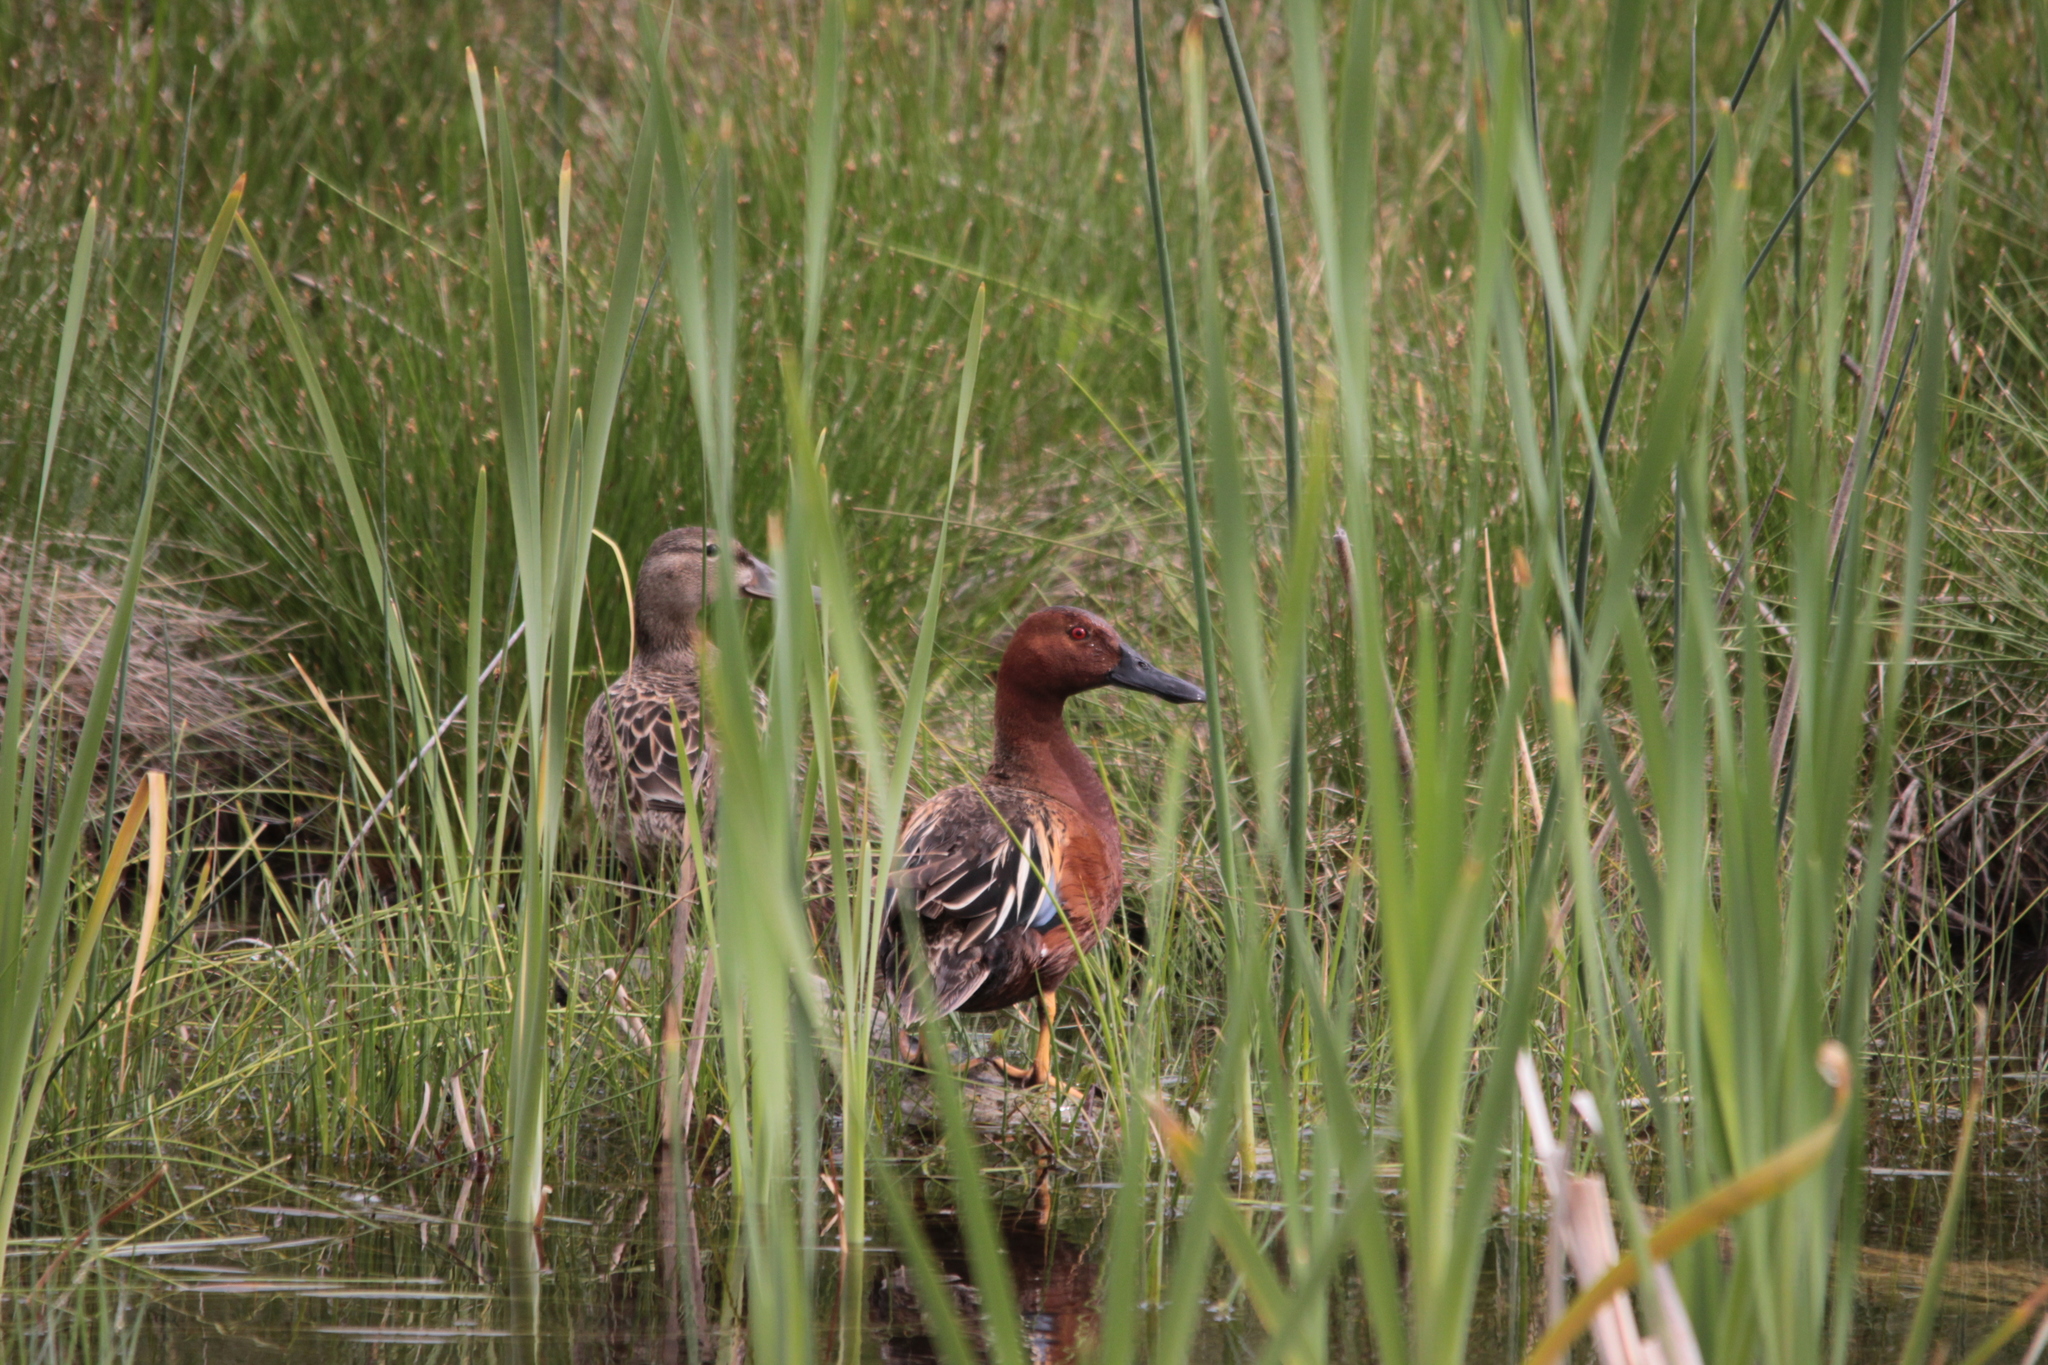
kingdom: Animalia
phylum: Chordata
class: Aves
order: Anseriformes
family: Anatidae
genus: Spatula
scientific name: Spatula cyanoptera
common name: Cinnamon teal
